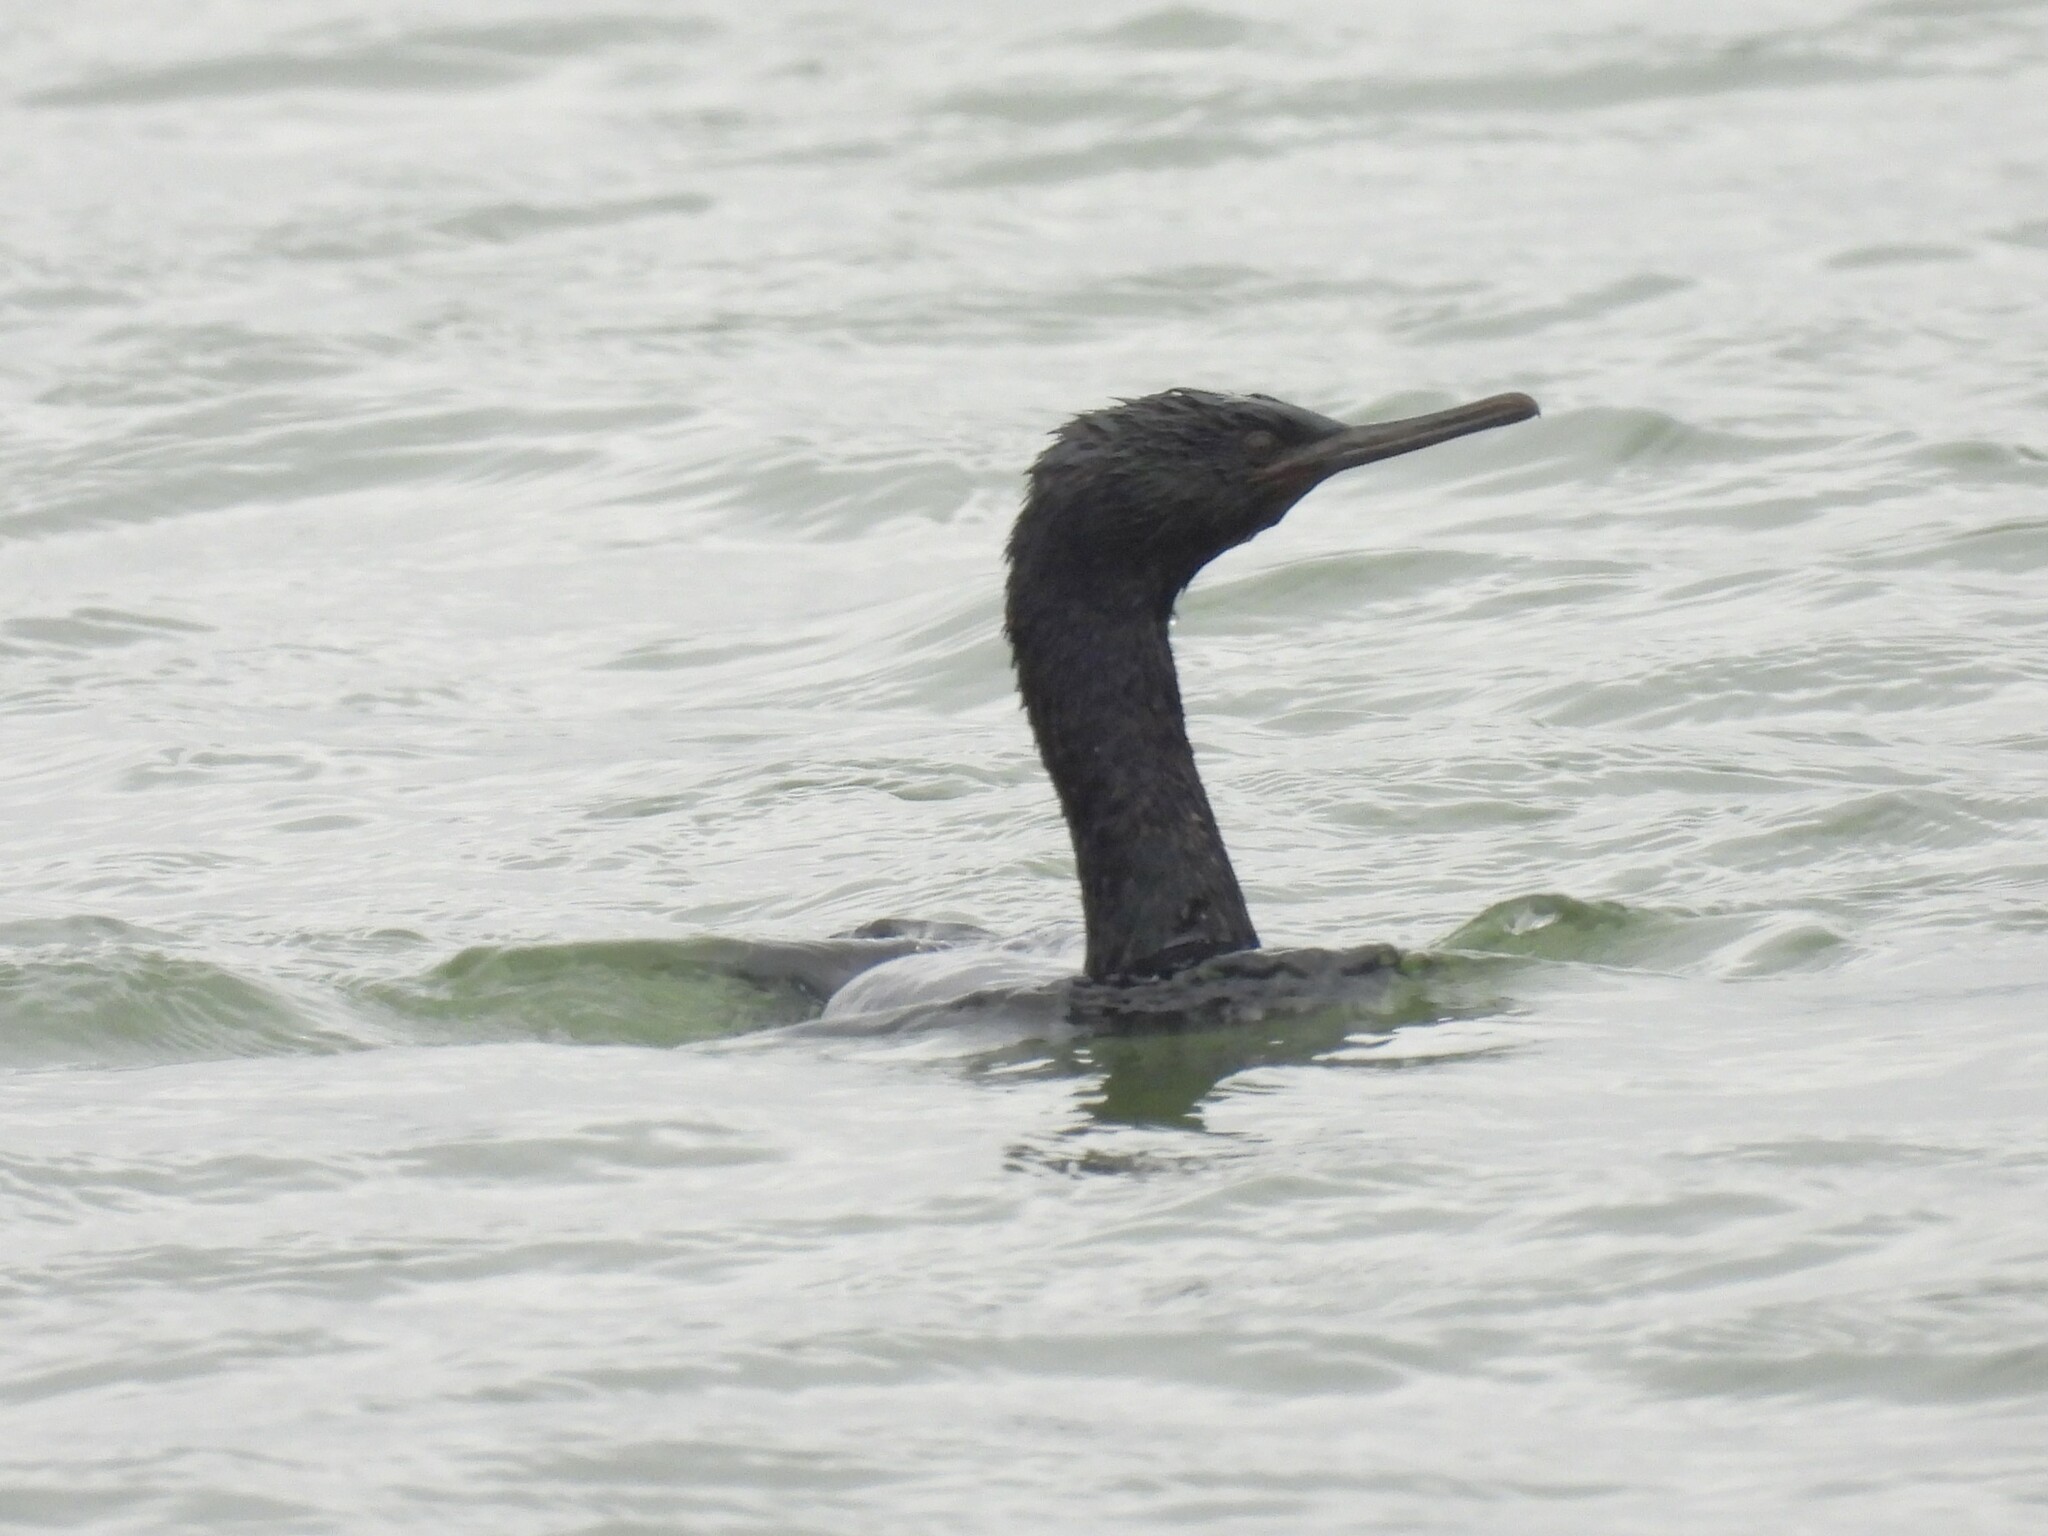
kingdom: Animalia
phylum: Chordata
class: Aves
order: Suliformes
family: Phalacrocoracidae
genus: Phalacrocorax
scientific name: Phalacrocorax pelagicus
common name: Pelagic cormorant
